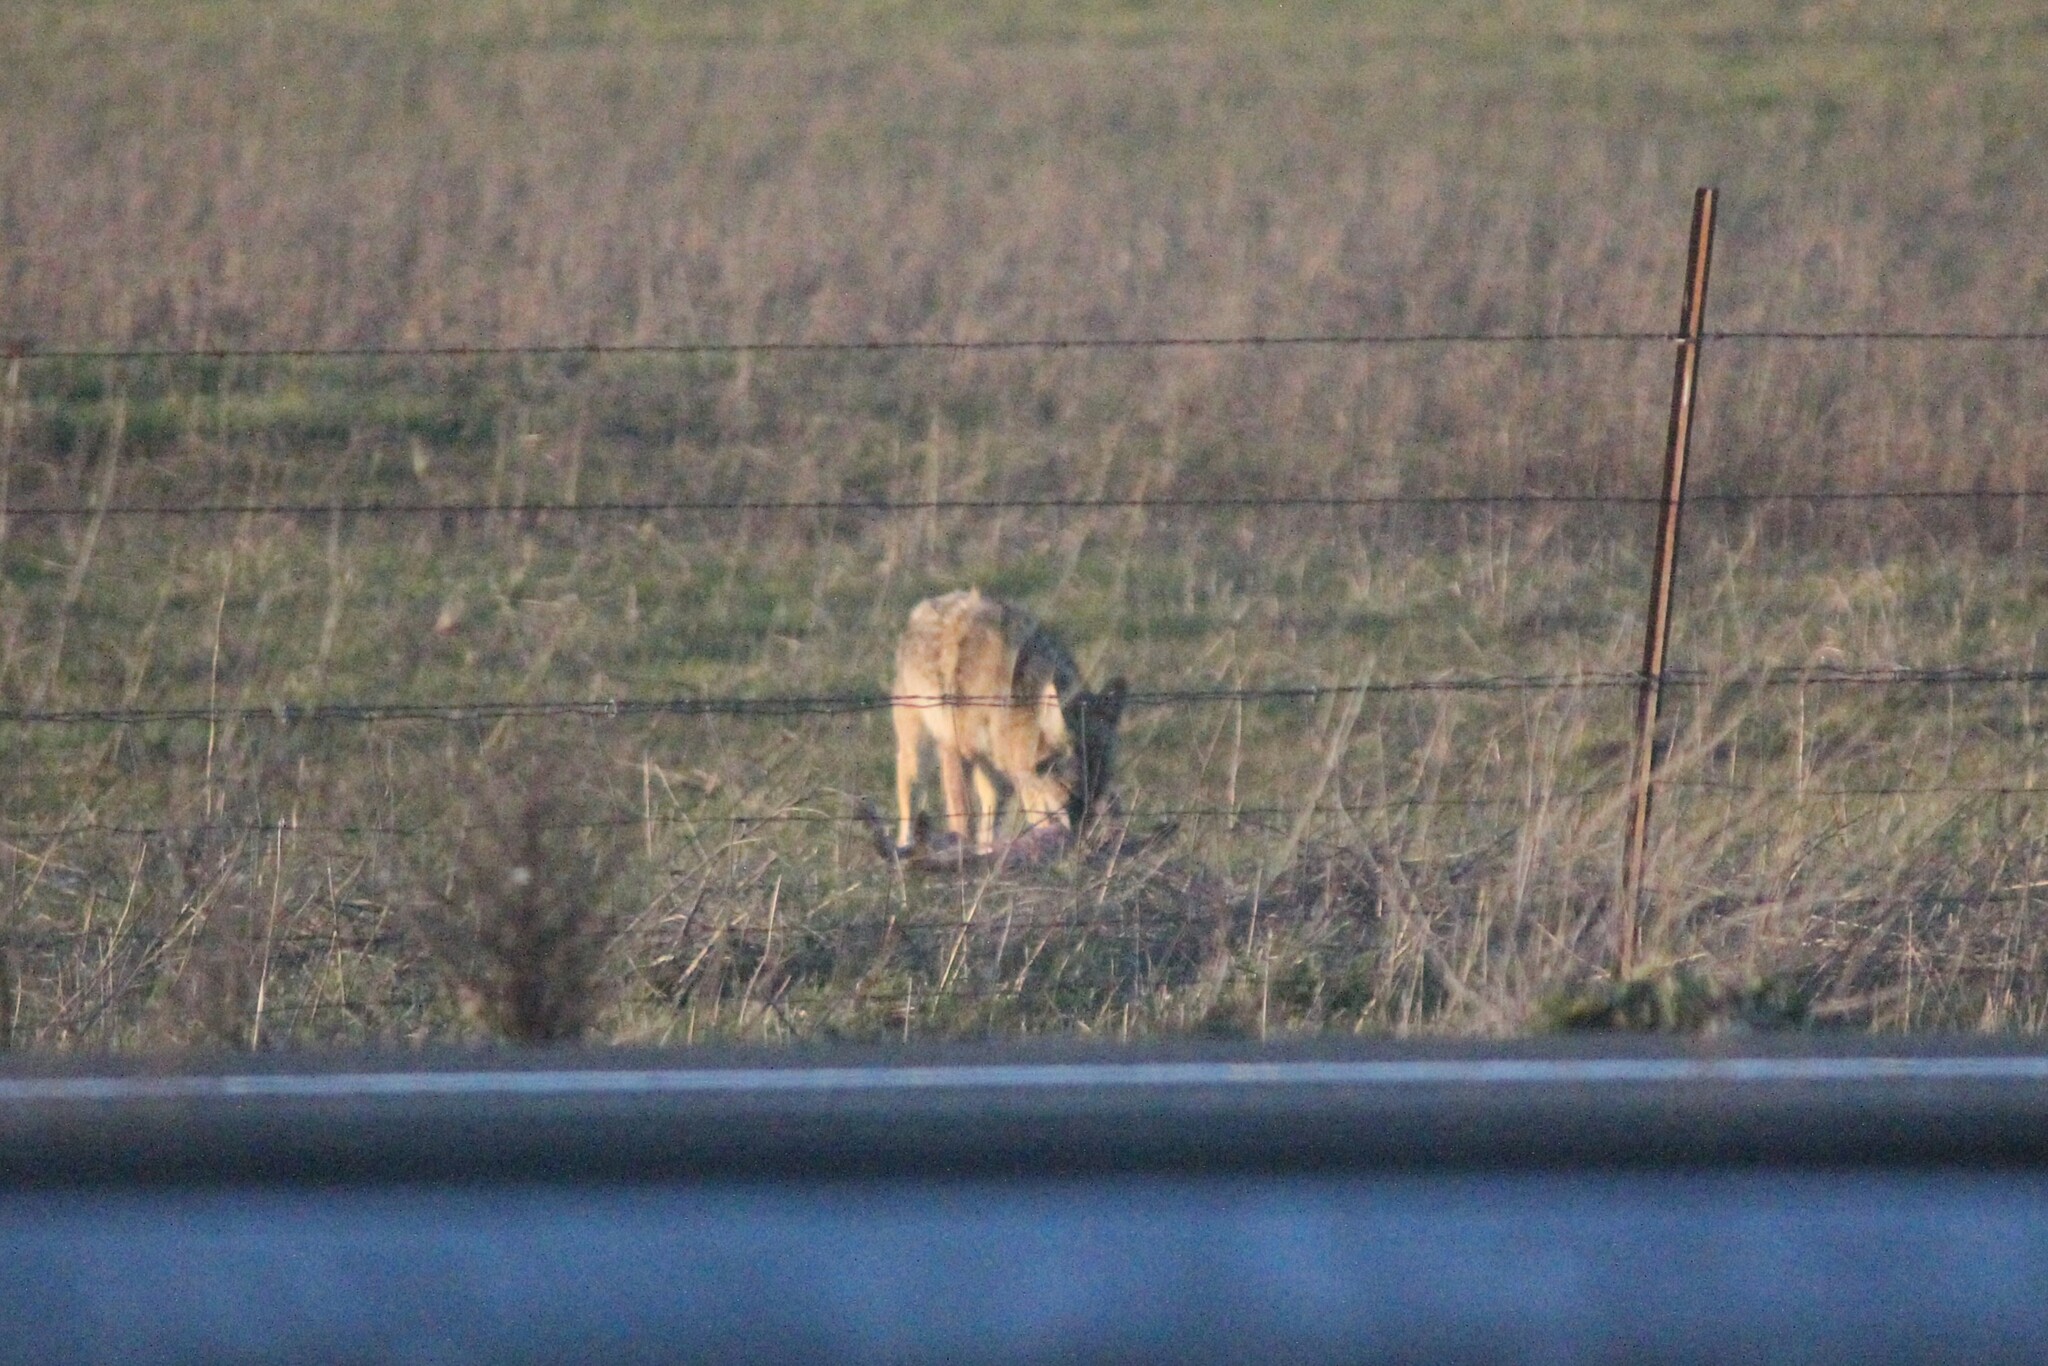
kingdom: Animalia
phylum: Chordata
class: Mammalia
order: Carnivora
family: Canidae
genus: Canis
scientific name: Canis latrans
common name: Coyote
